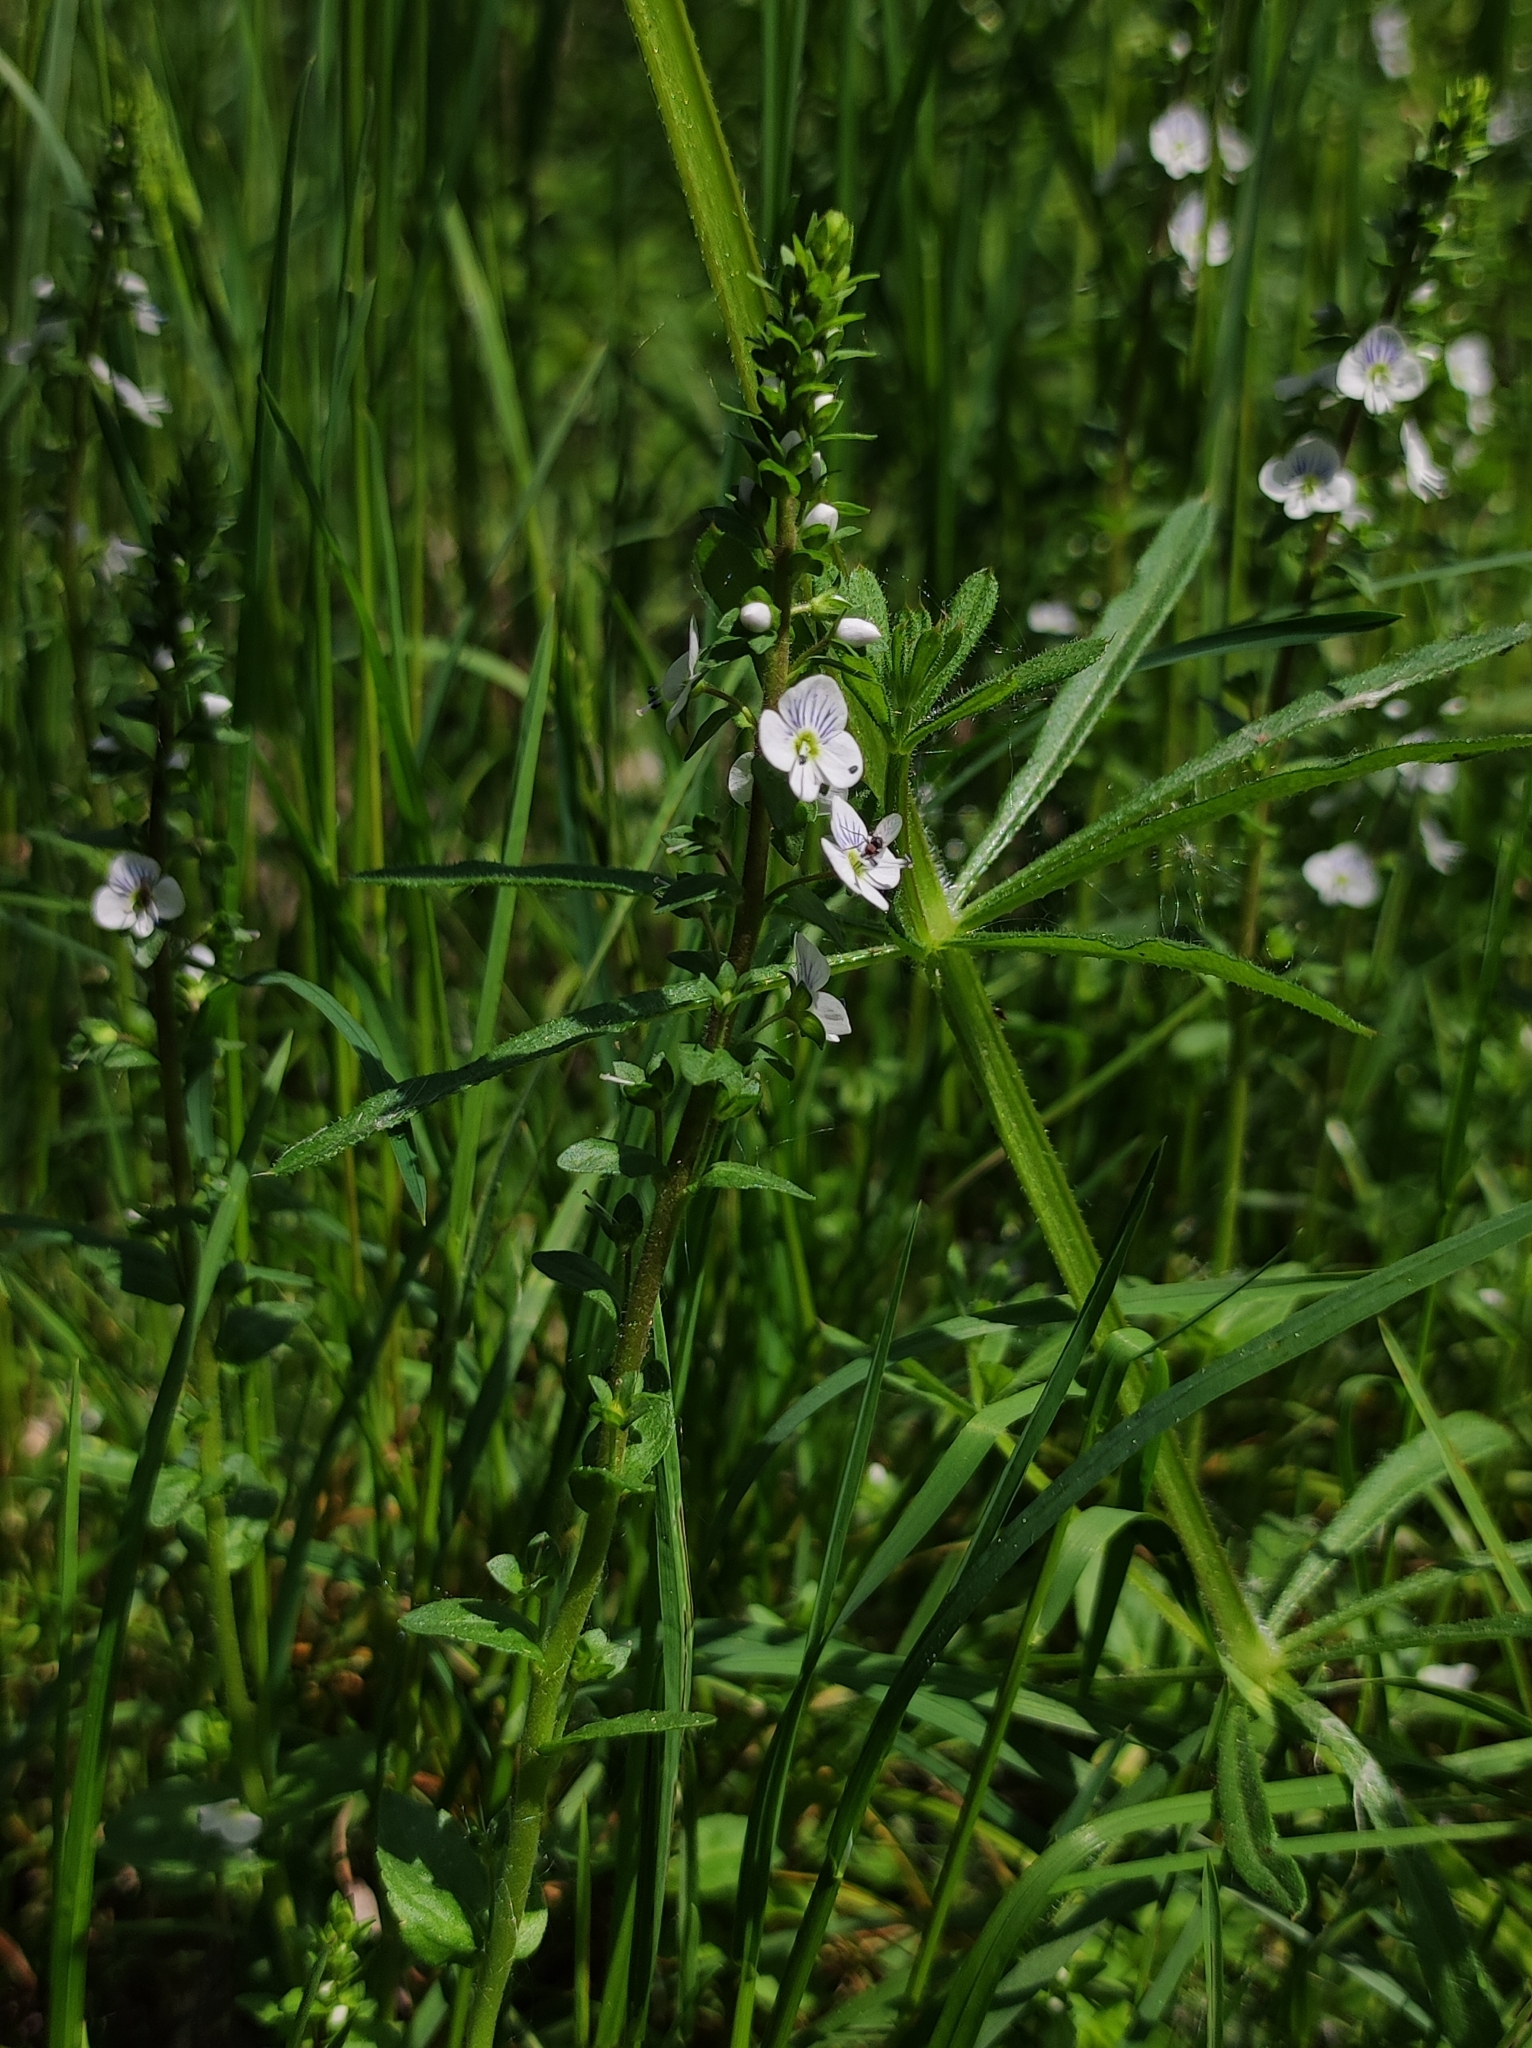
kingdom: Plantae
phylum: Tracheophyta
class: Magnoliopsida
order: Lamiales
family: Plantaginaceae
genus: Veronica
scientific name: Veronica serpyllifolia
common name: Thyme-leaved speedwell
